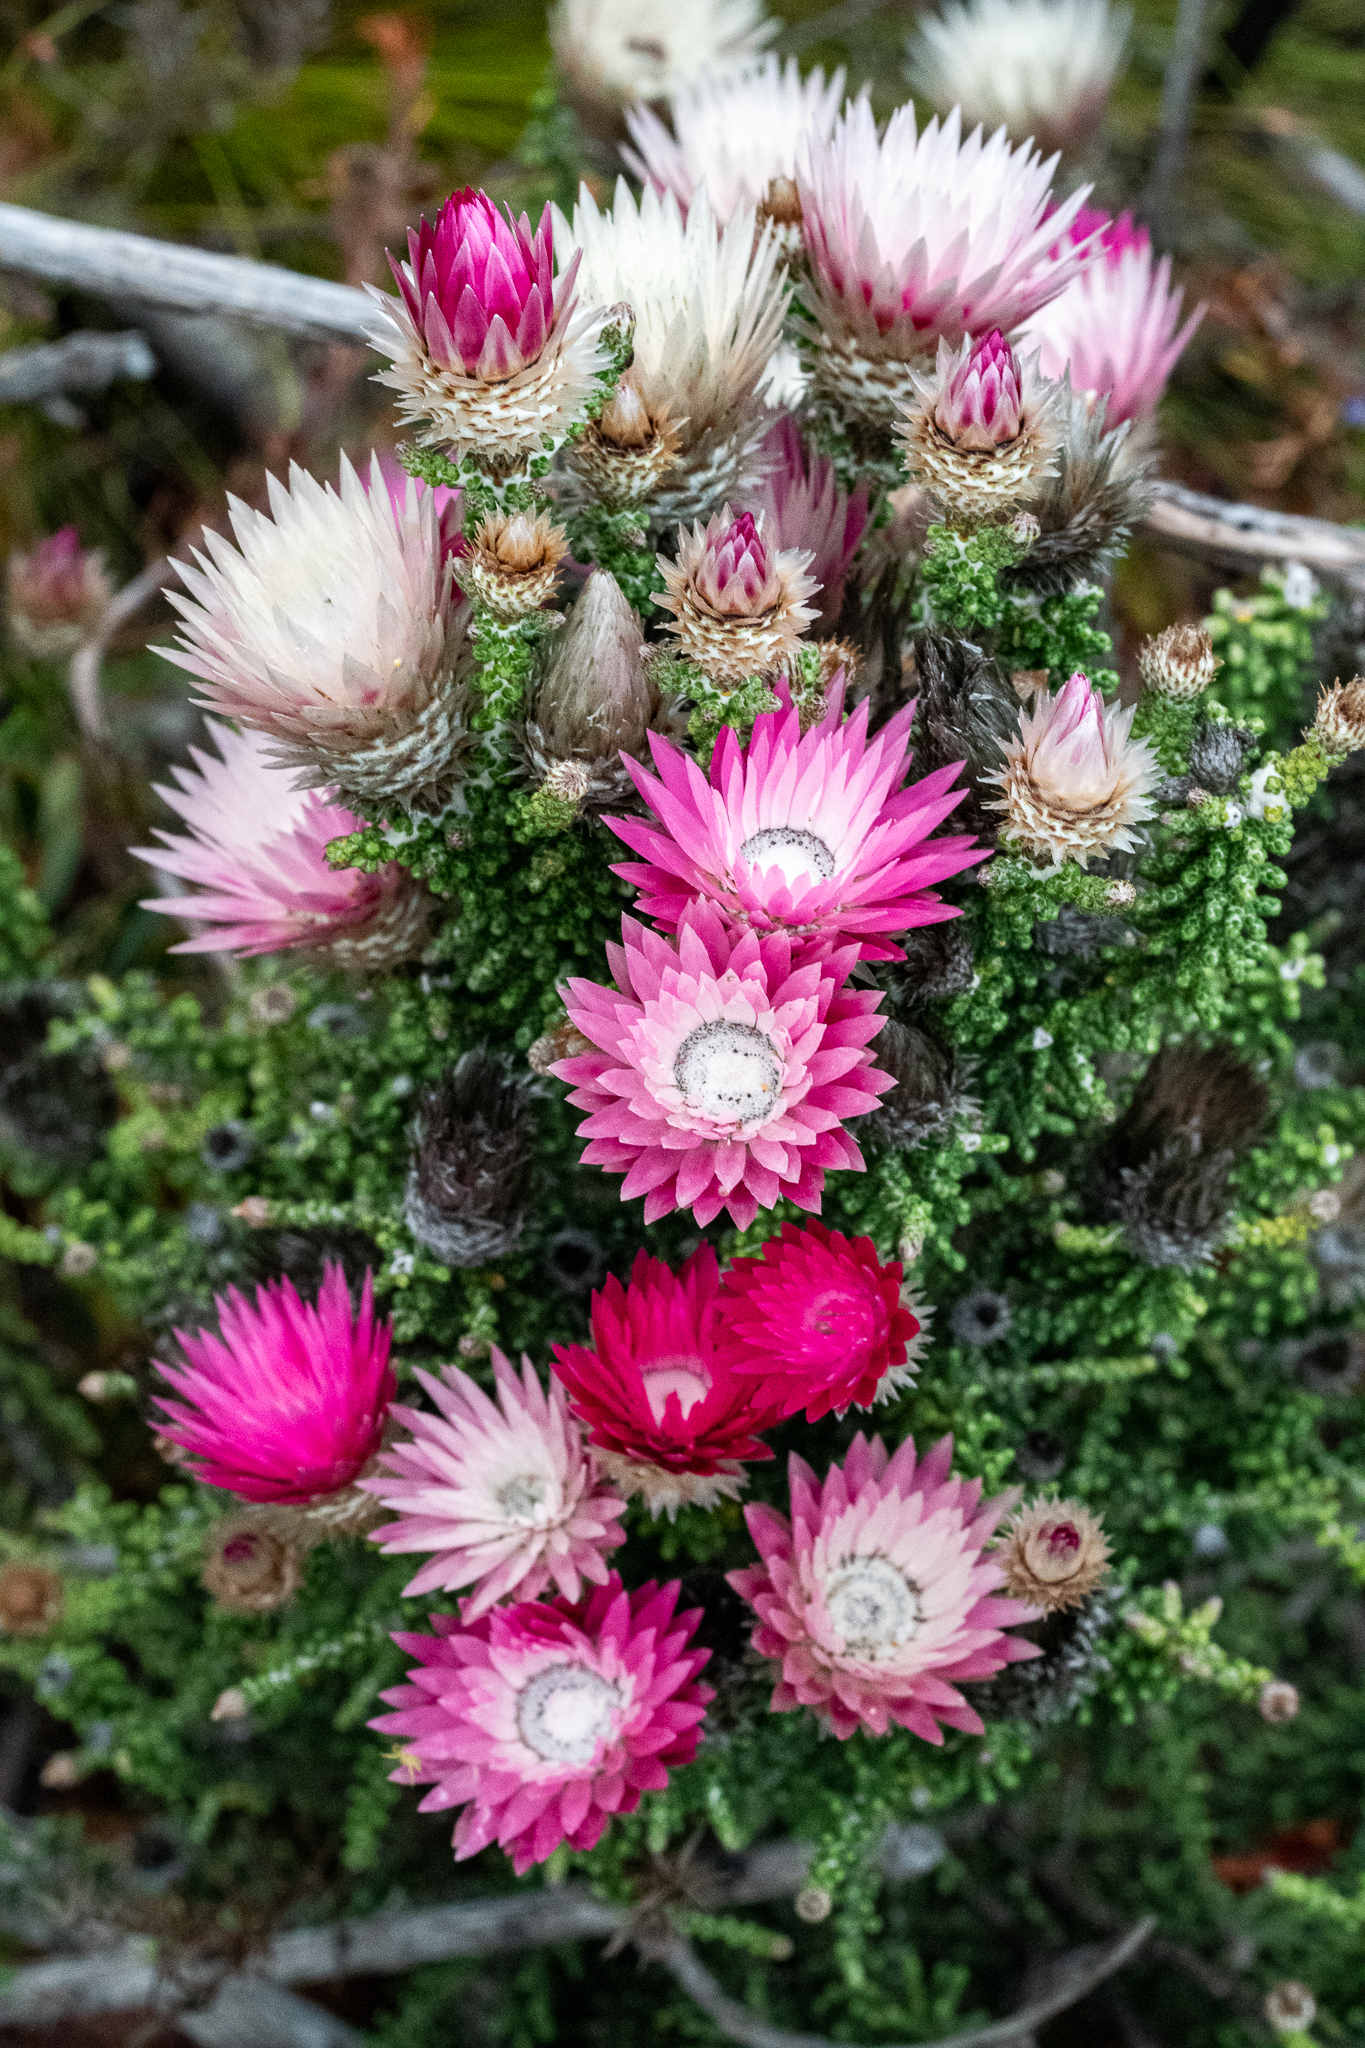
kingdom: Plantae
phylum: Tracheophyta
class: Magnoliopsida
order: Asterales
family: Asteraceae
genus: Phaenocoma
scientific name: Phaenocoma prolifera
